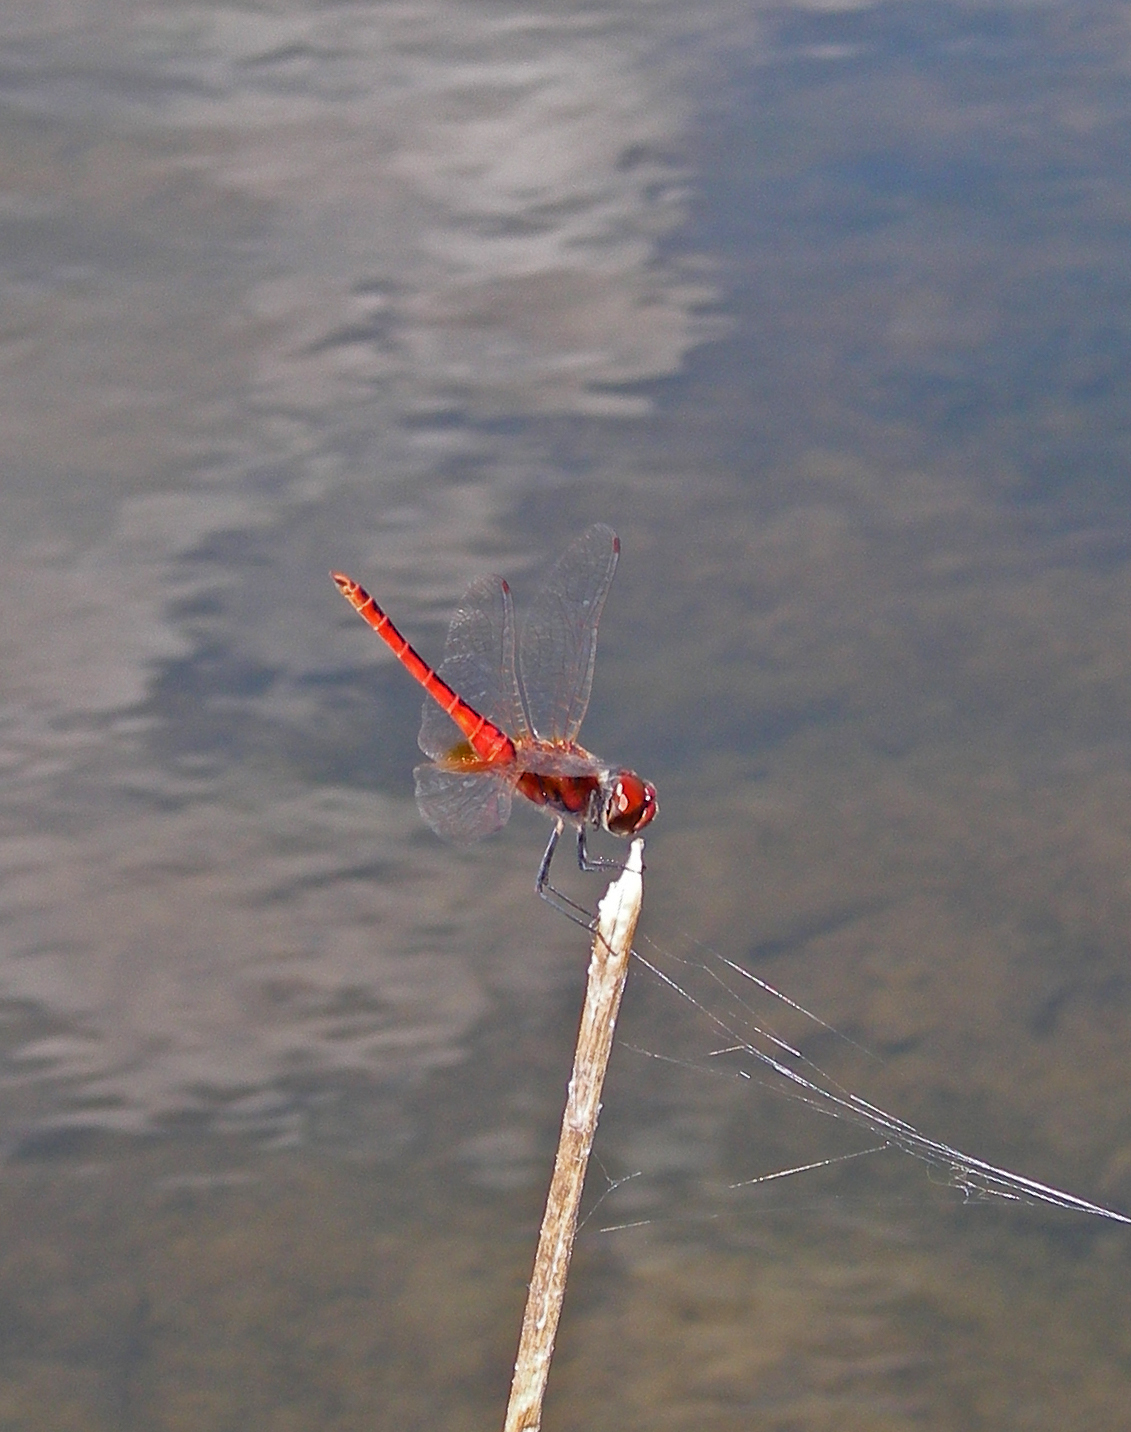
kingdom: Animalia
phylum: Arthropoda
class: Insecta
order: Odonata
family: Libellulidae
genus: Macrodiplax
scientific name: Macrodiplax cora
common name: Coastal glider
